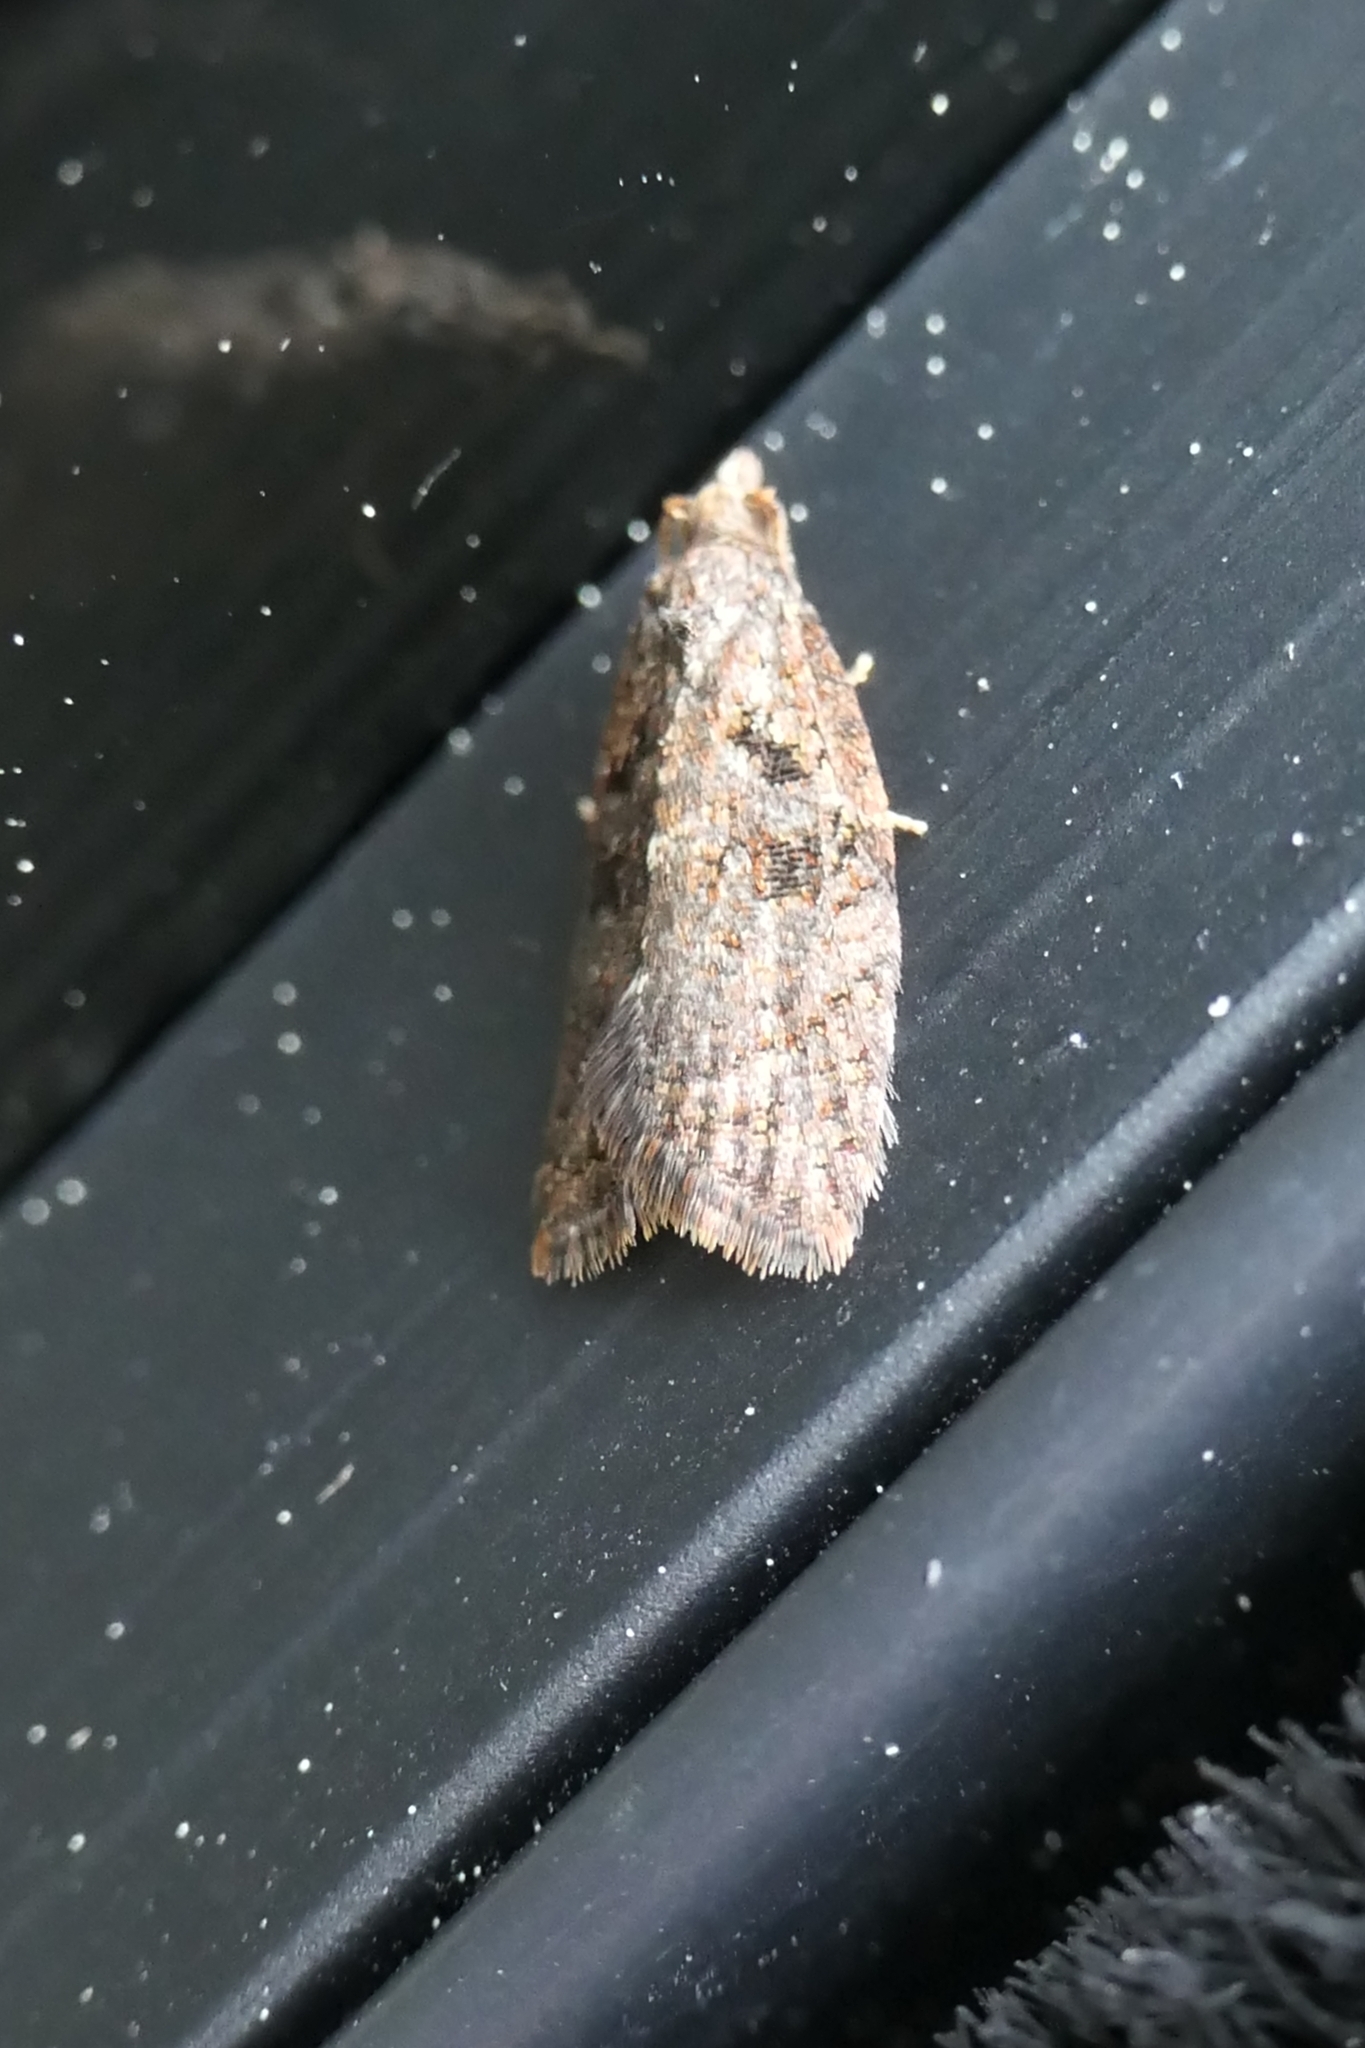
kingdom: Animalia
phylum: Arthropoda
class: Insecta
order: Lepidoptera
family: Tortricidae
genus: Capua
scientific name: Capua intractana
